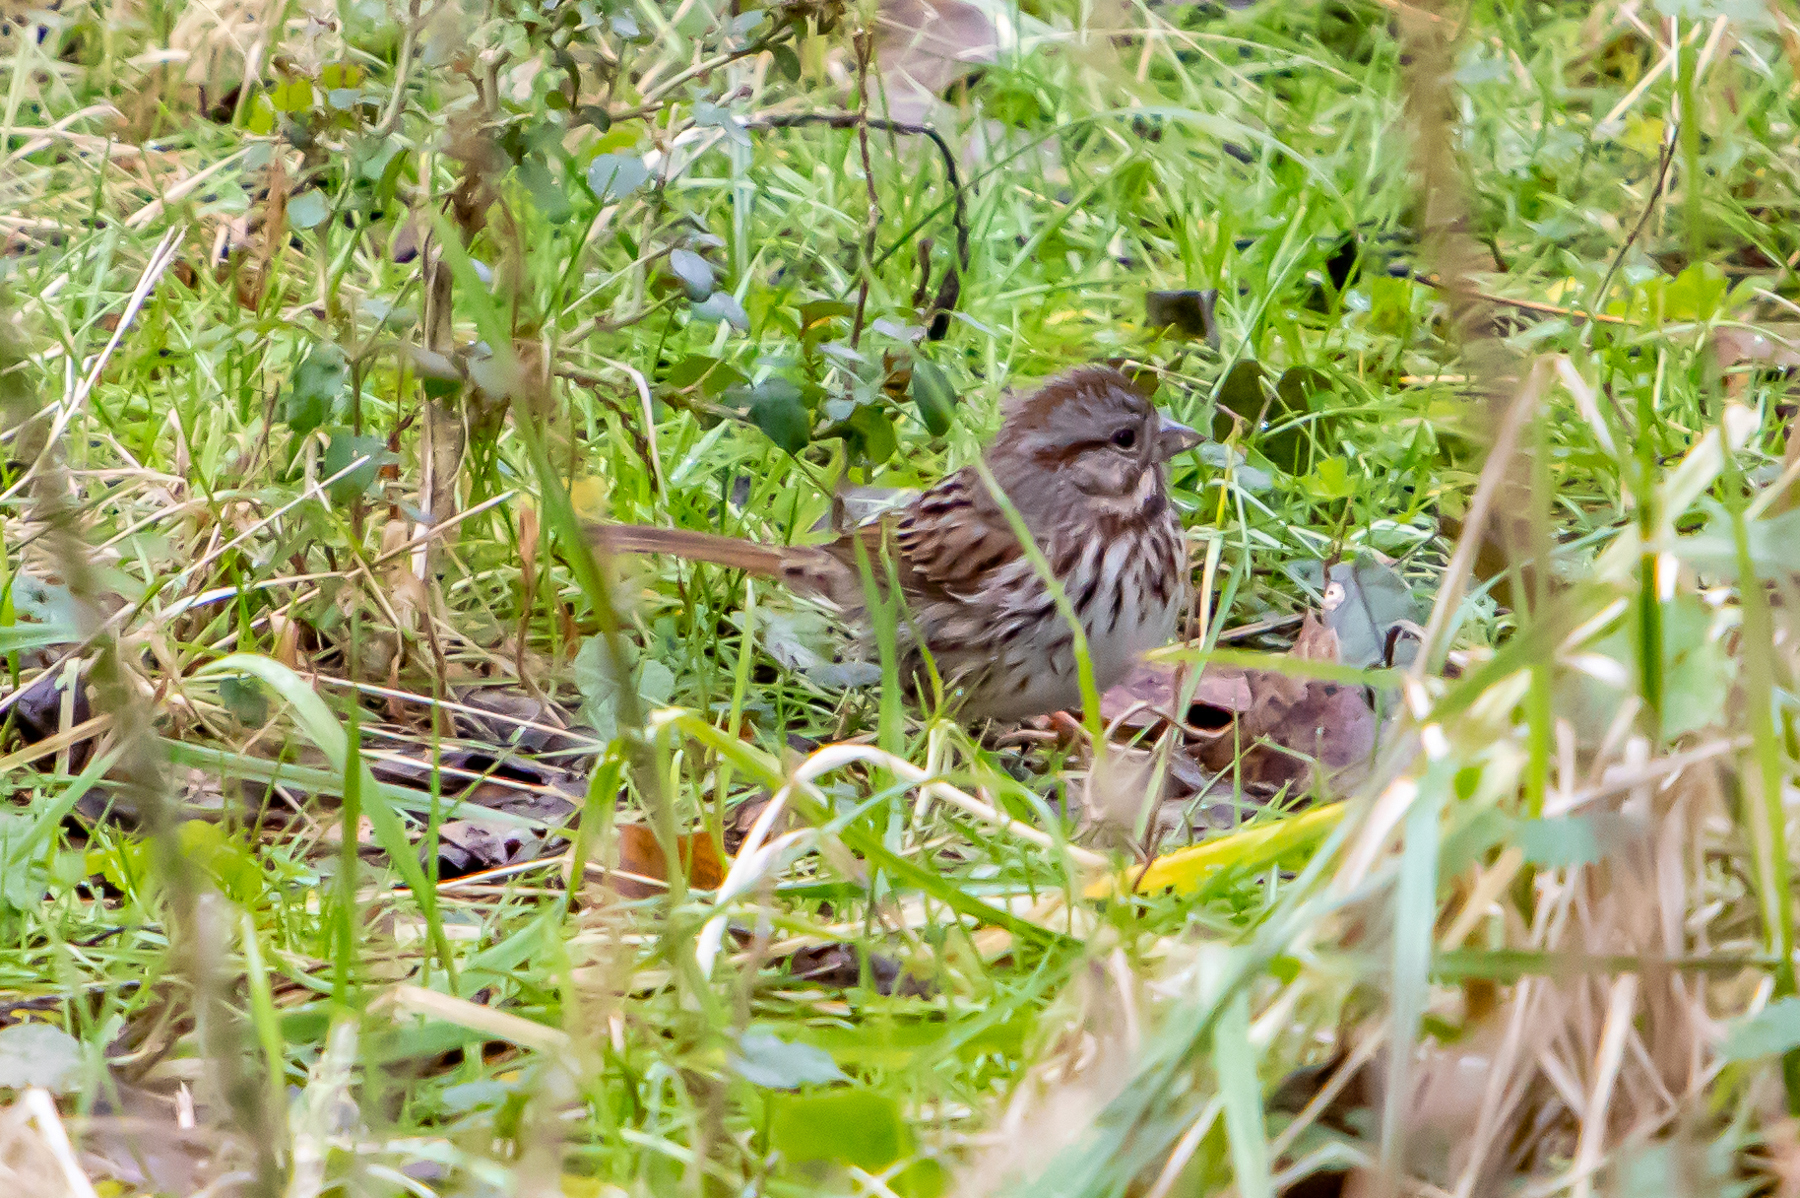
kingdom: Animalia
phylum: Chordata
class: Aves
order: Passeriformes
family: Passerellidae
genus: Melospiza
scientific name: Melospiza melodia
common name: Song sparrow
